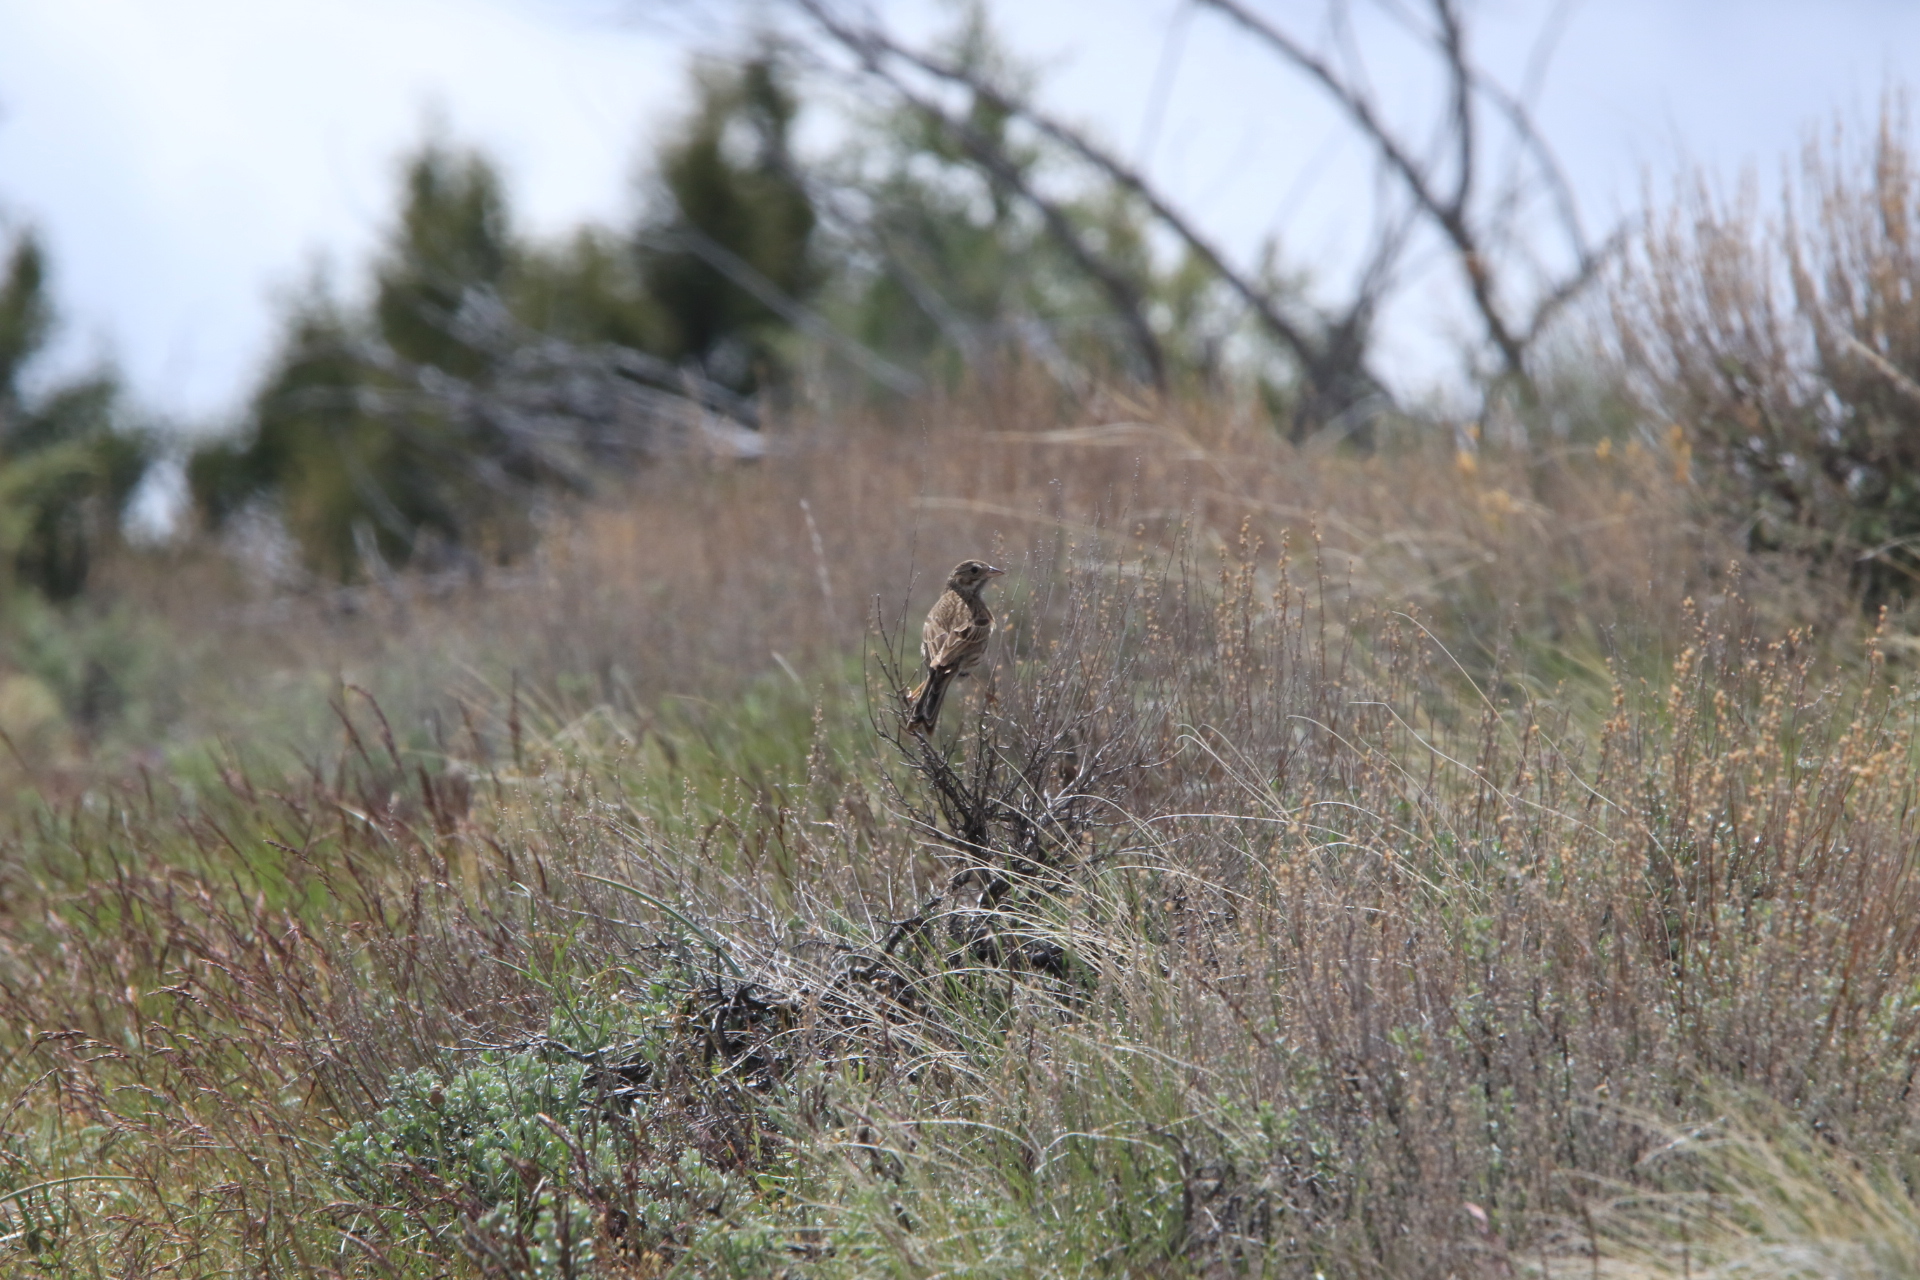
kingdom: Animalia
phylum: Chordata
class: Aves
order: Passeriformes
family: Passerellidae
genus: Pooecetes
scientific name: Pooecetes gramineus
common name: Vesper sparrow
